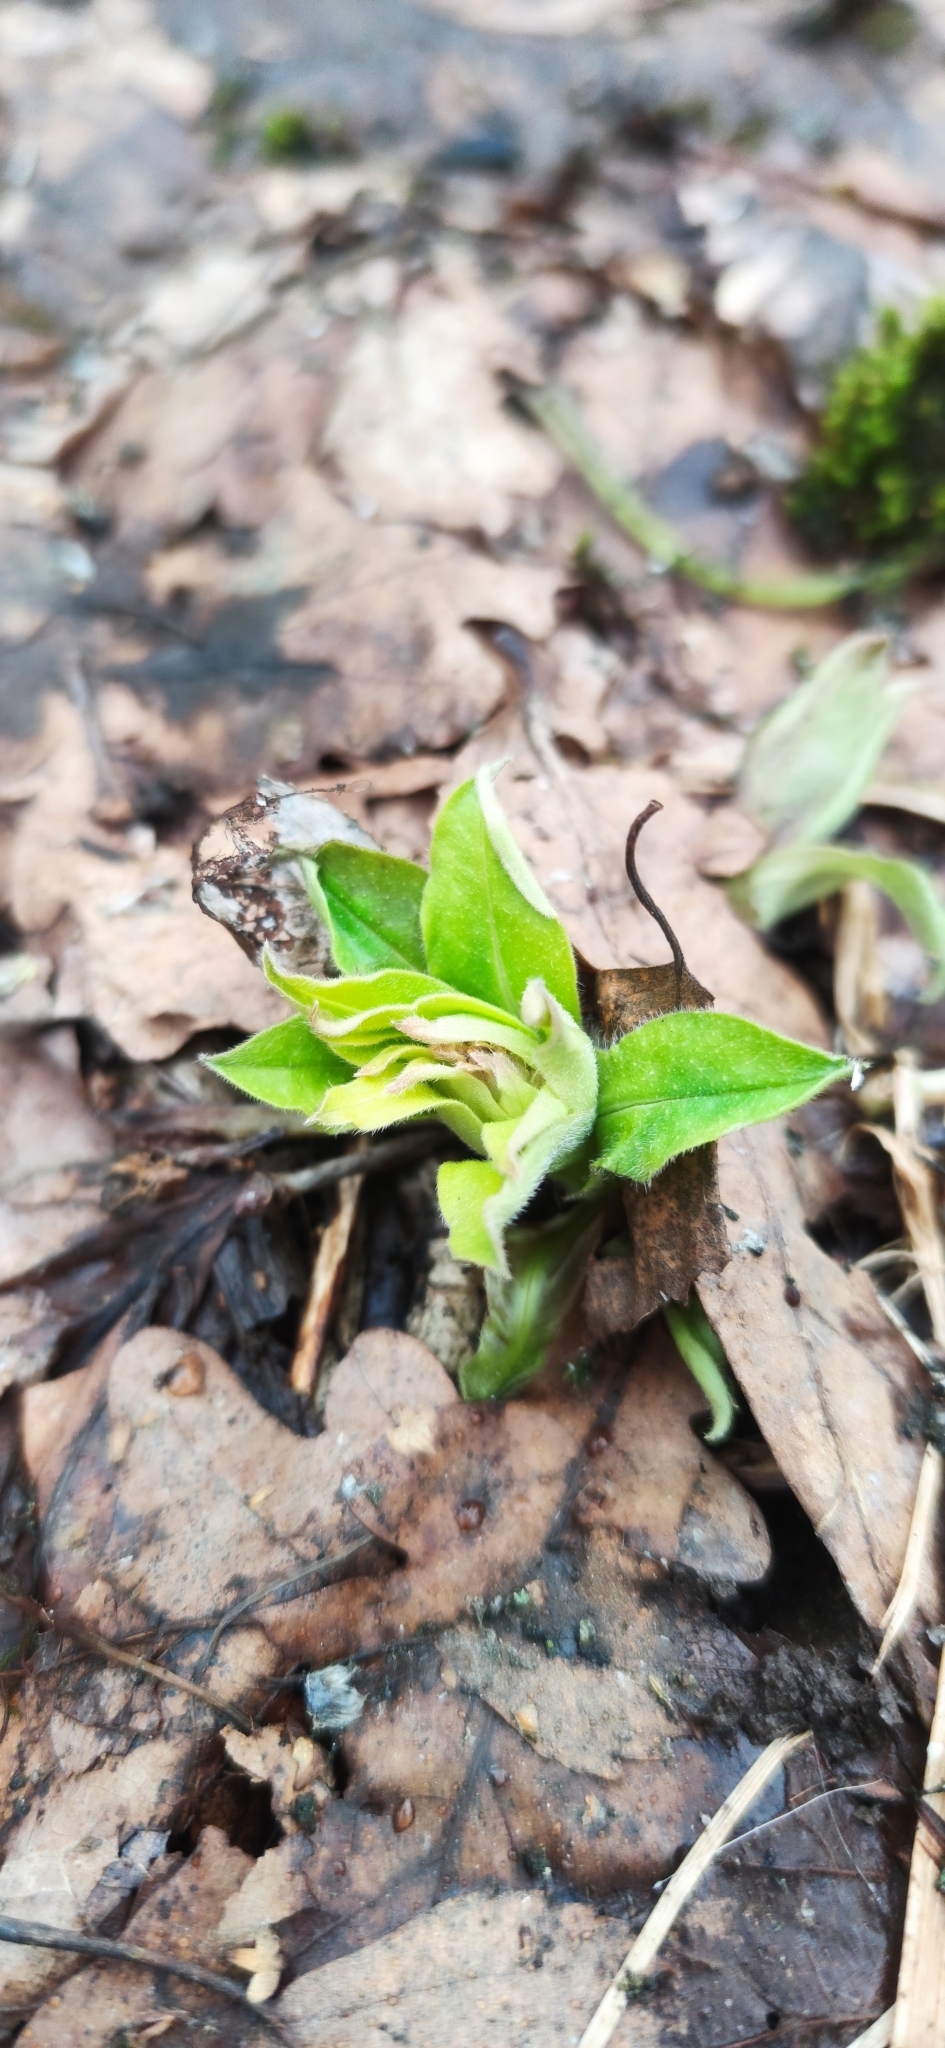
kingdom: Plantae
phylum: Tracheophyta
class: Magnoliopsida
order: Boraginales
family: Boraginaceae
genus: Pulmonaria
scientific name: Pulmonaria obscura
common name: Suffolk lungwort
